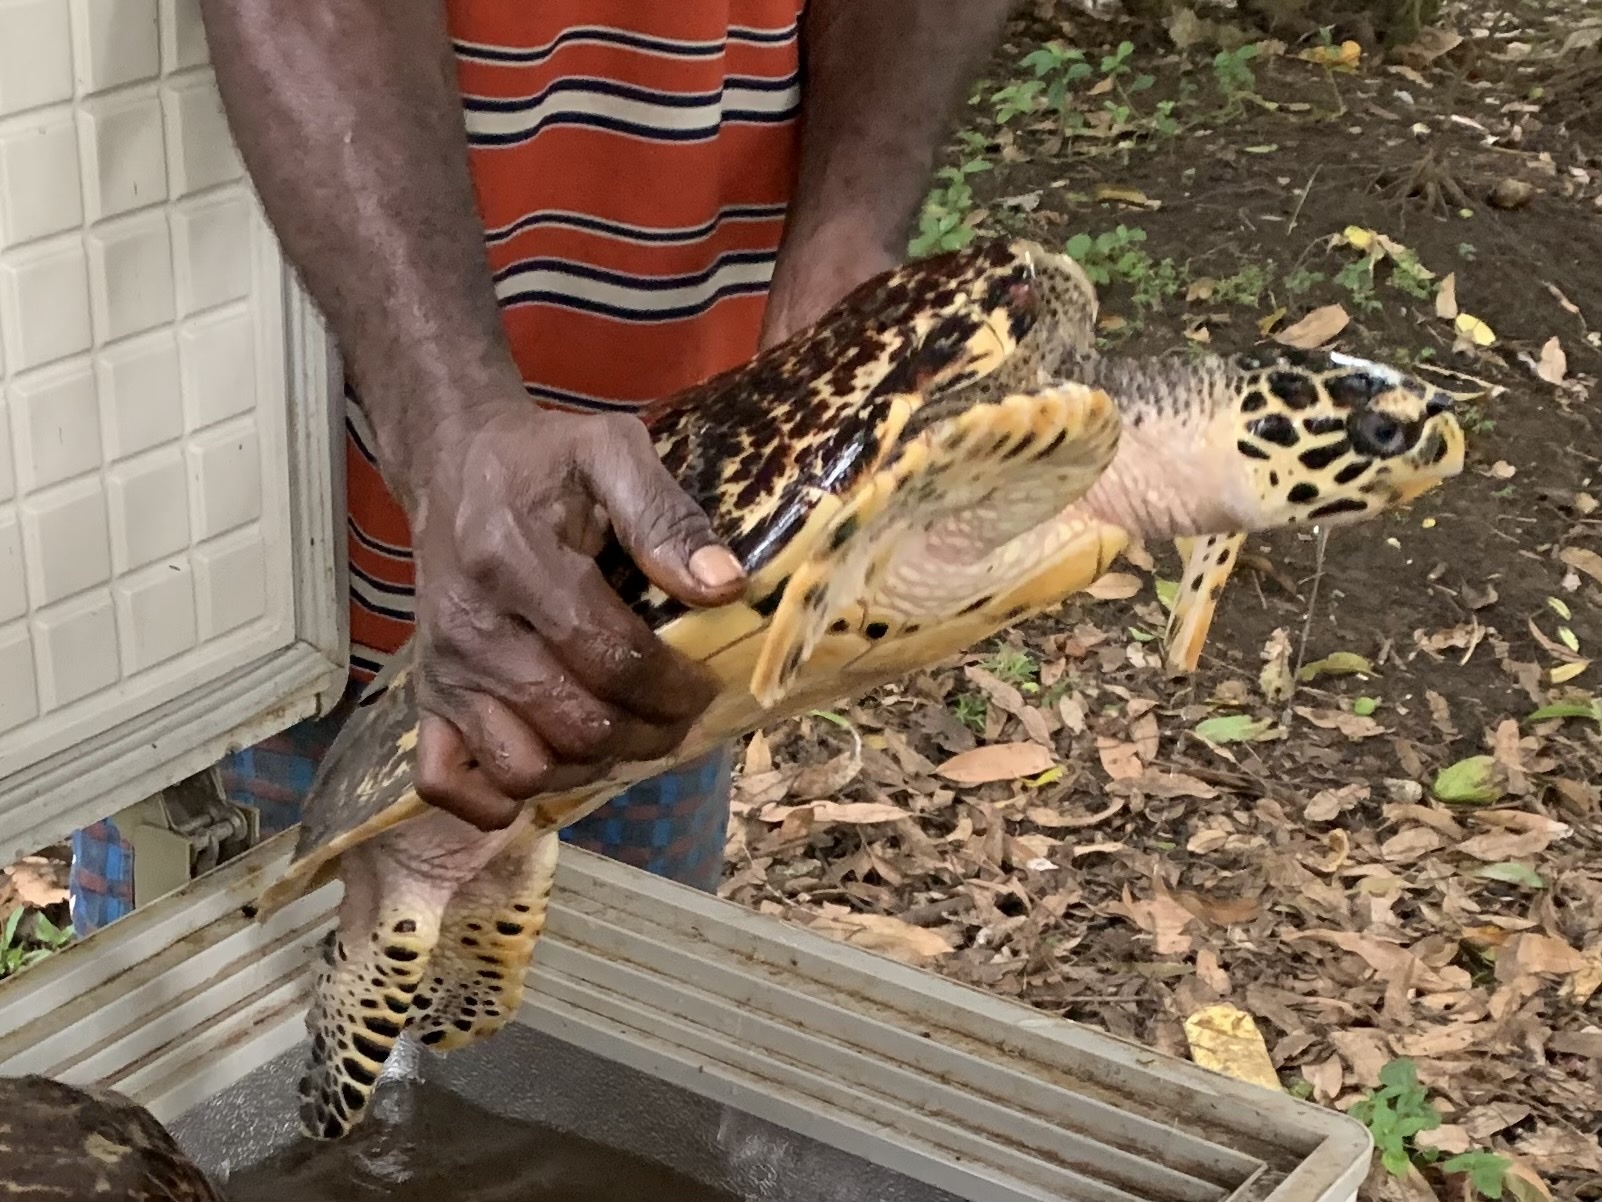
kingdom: Animalia
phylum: Chordata
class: Testudines
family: Cheloniidae
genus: Eretmochelys
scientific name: Eretmochelys imbricata
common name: Hawksbill turtle
